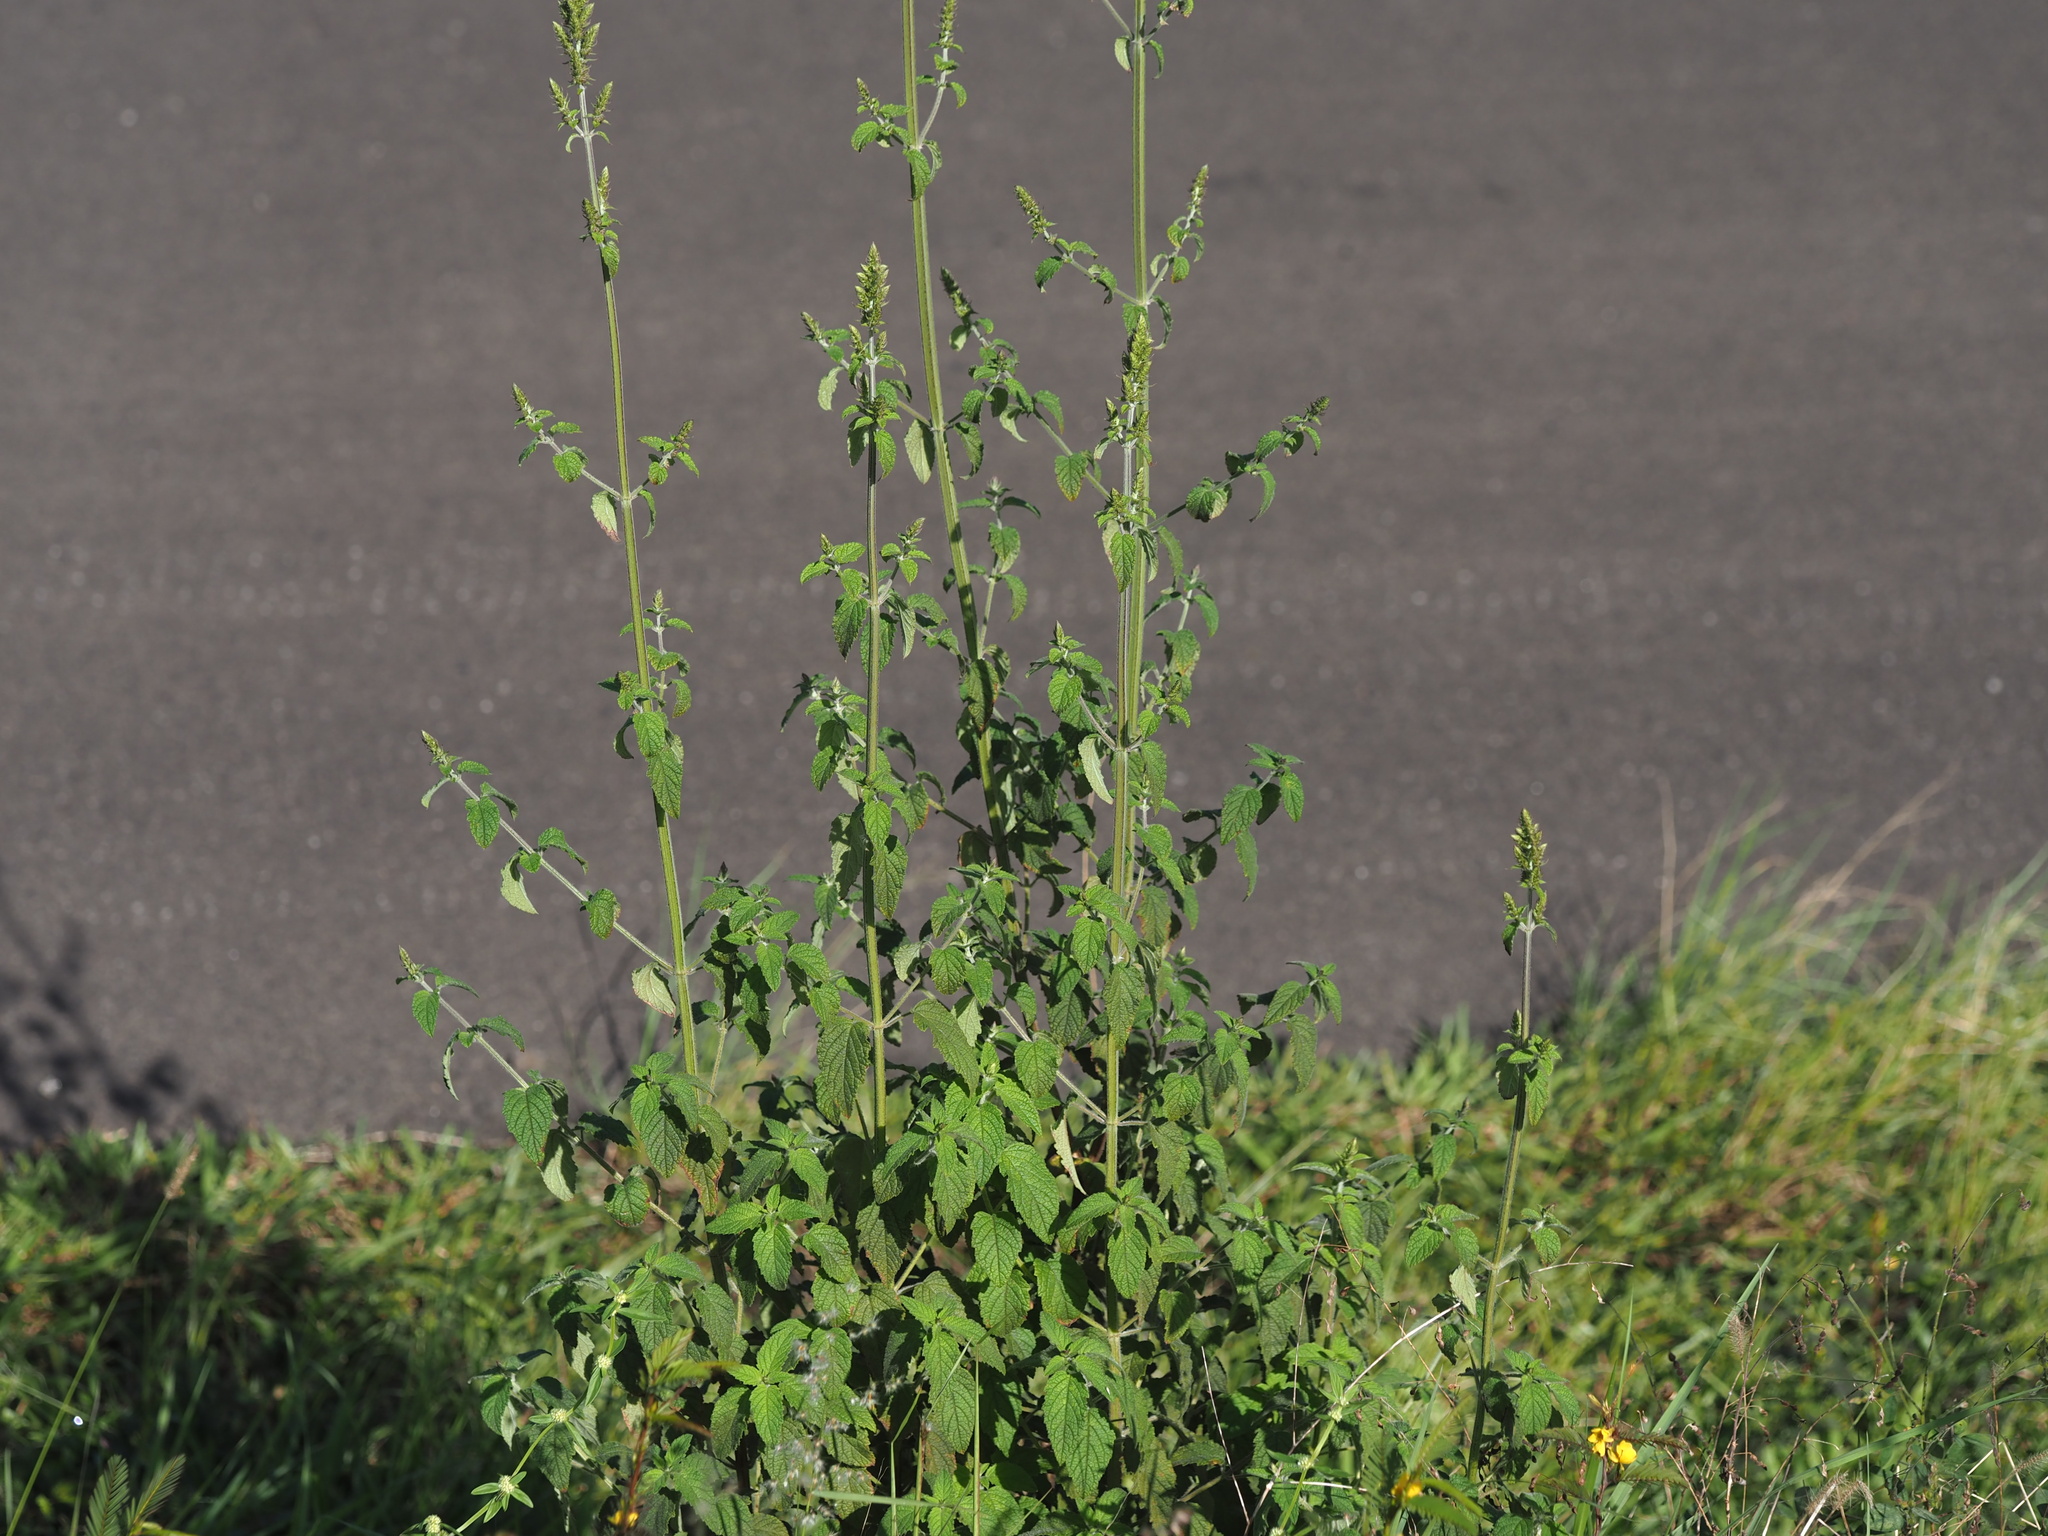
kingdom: Plantae
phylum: Tracheophyta
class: Magnoliopsida
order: Lamiales
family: Lamiaceae
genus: Mesosphaerum
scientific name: Mesosphaerum pectinatum
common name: Comb hyptis
